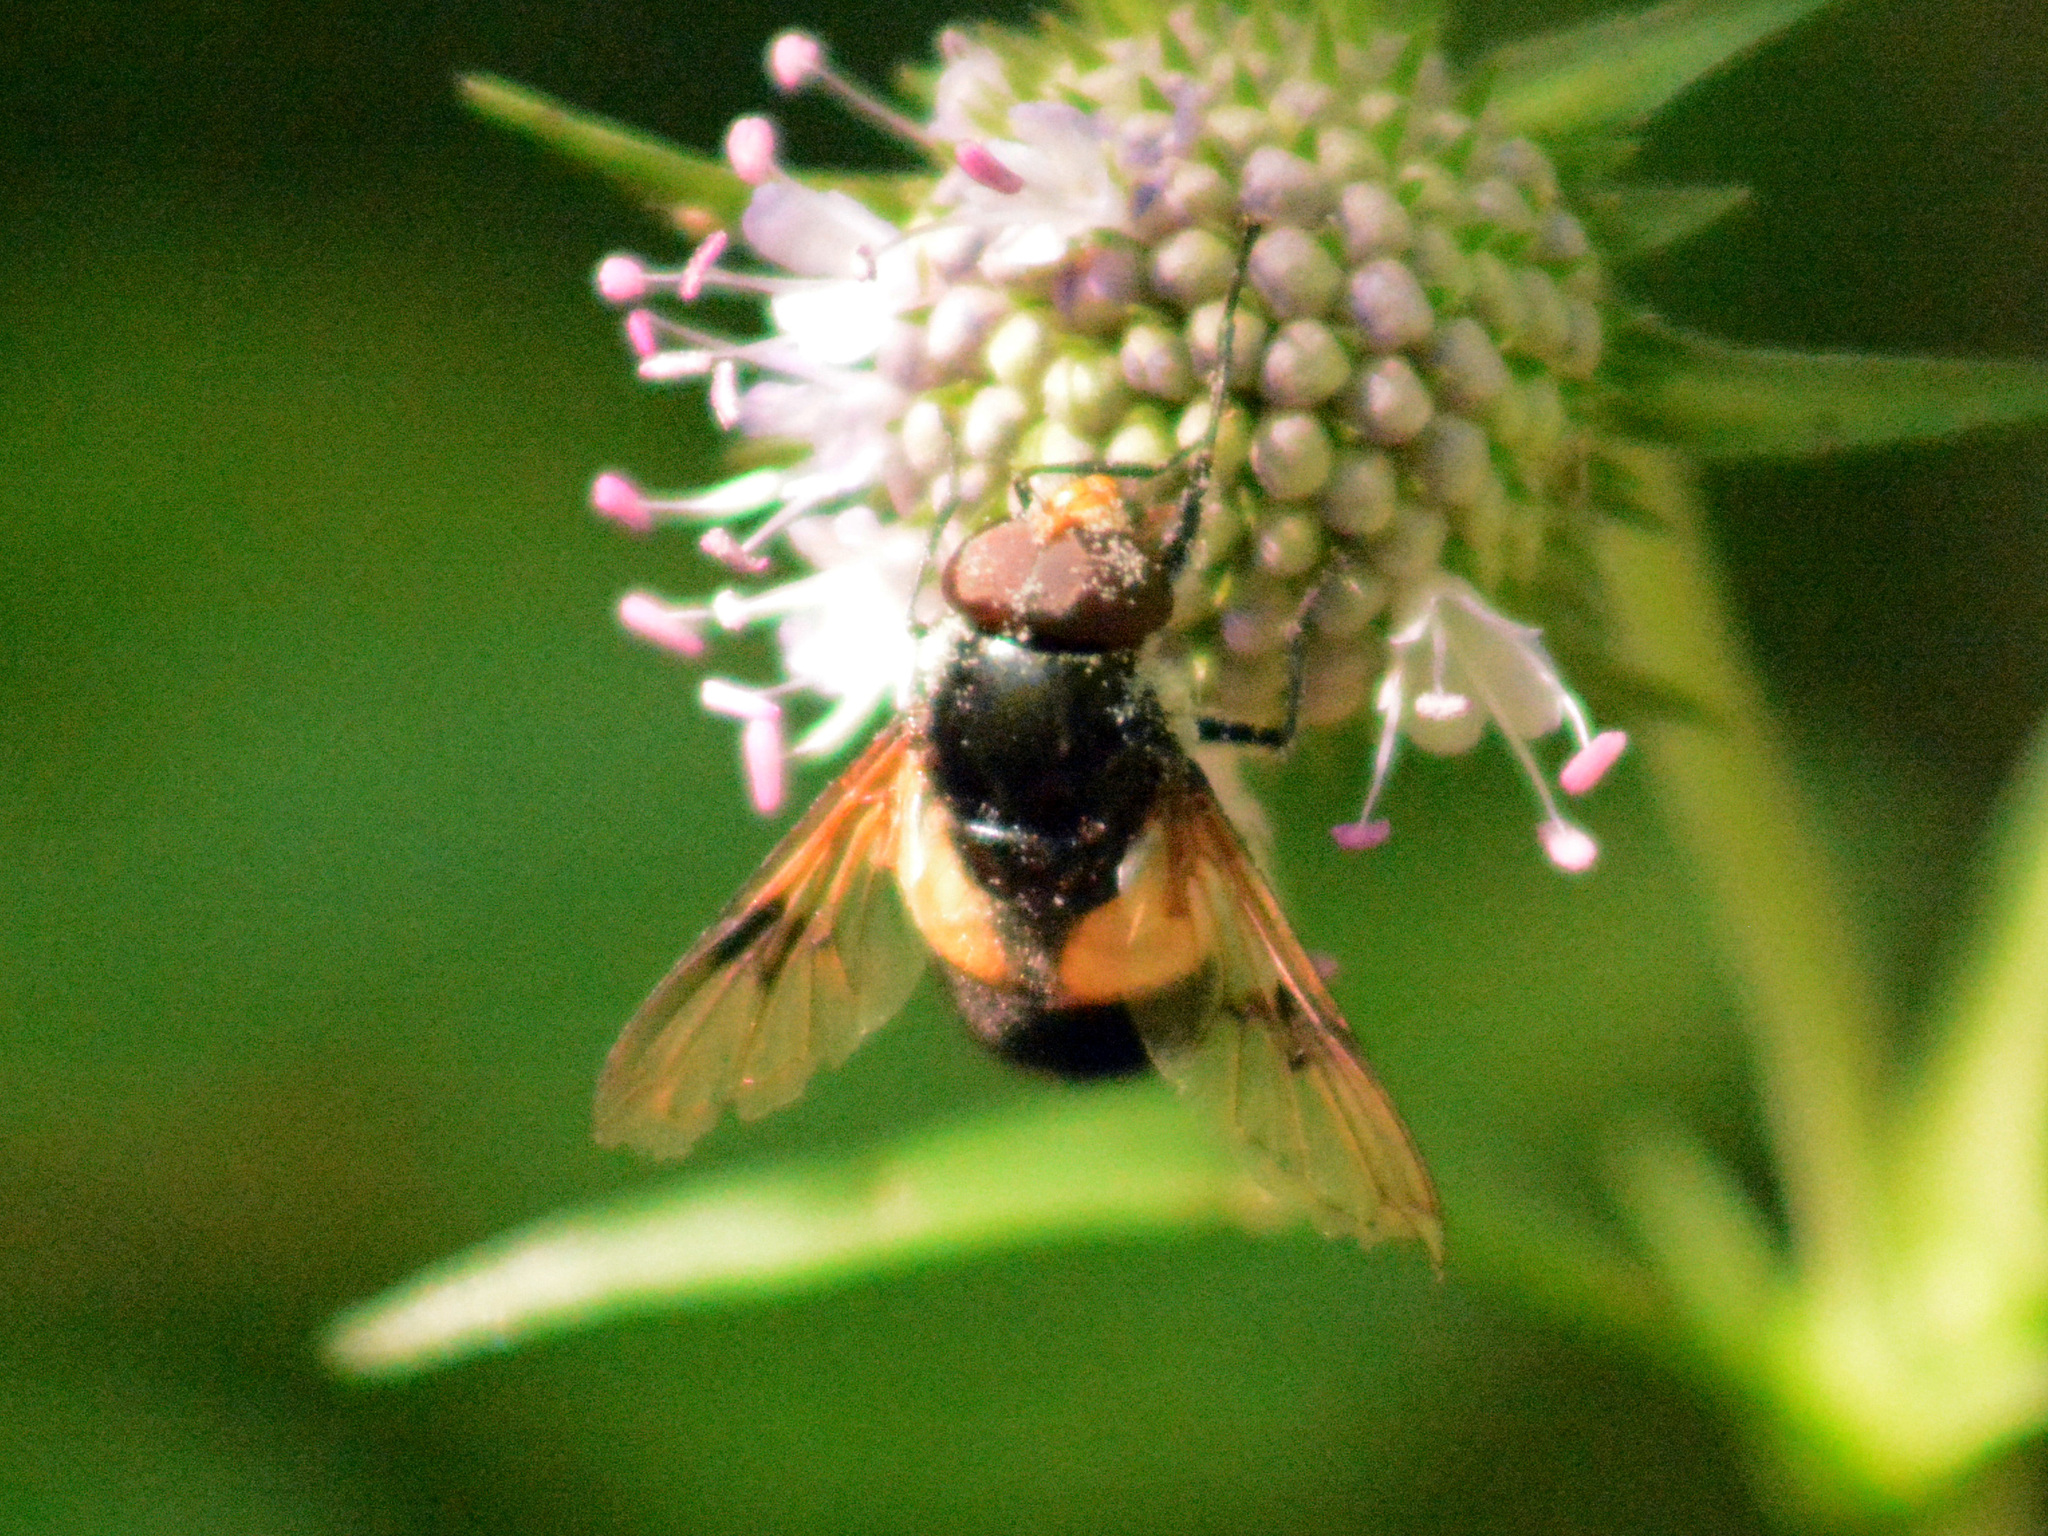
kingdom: Animalia
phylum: Arthropoda
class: Insecta
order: Diptera
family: Syrphidae
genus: Volucella
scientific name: Volucella pellucens
